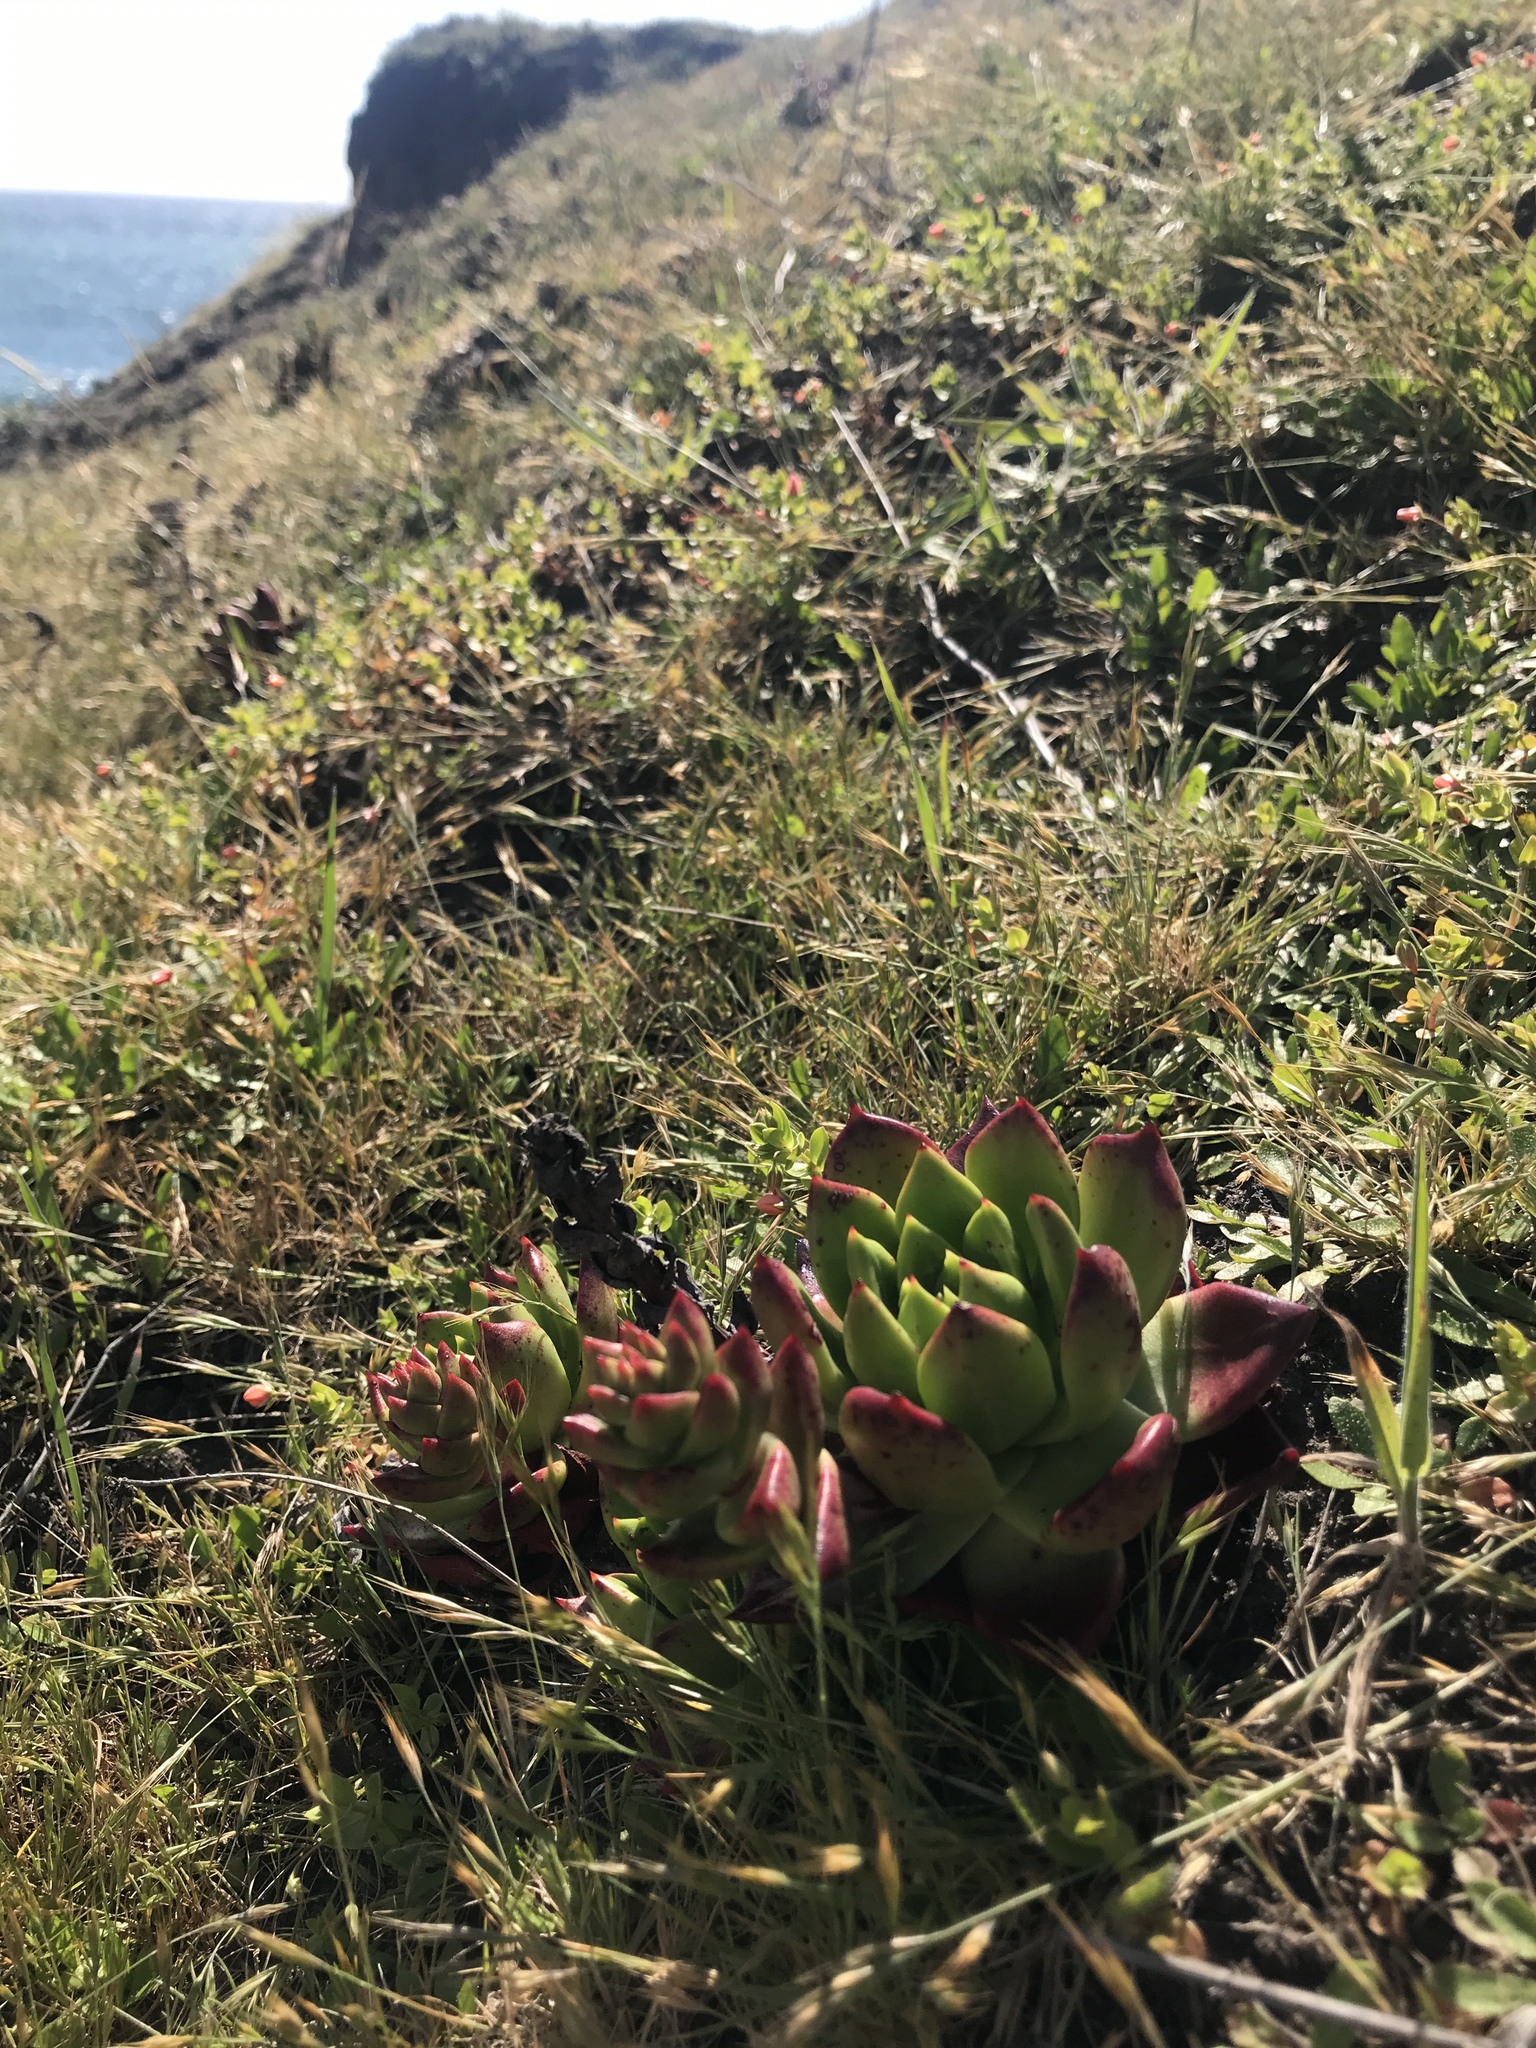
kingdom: Plantae
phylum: Tracheophyta
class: Magnoliopsida
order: Saxifragales
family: Crassulaceae
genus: Dudleya
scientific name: Dudleya farinosa
